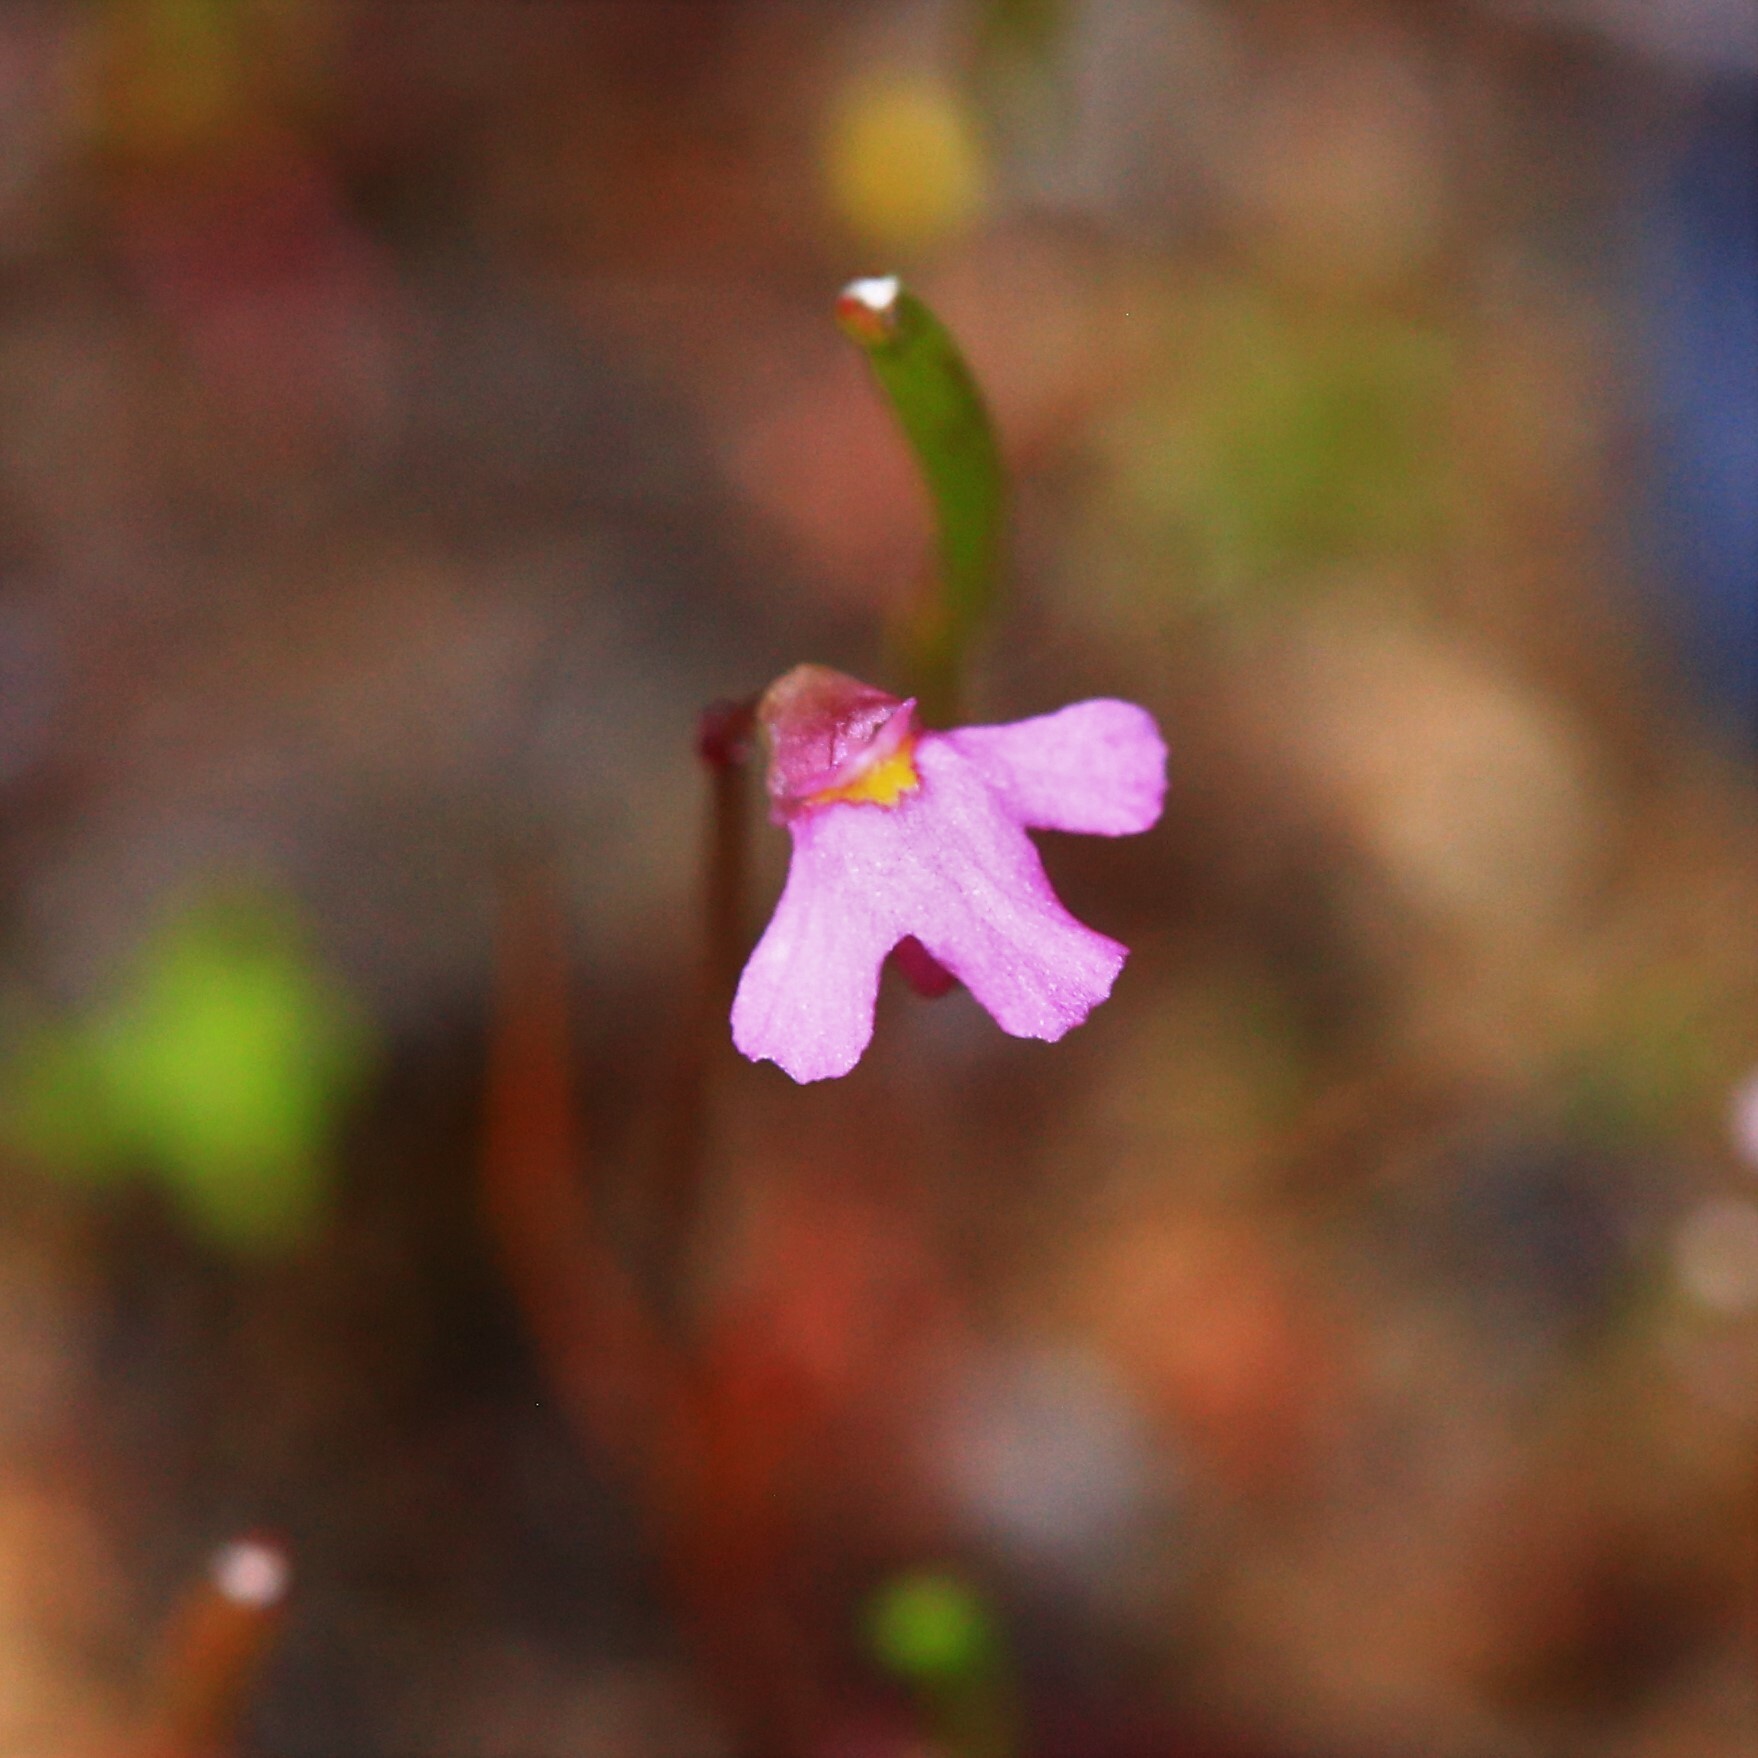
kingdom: Plantae
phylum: Tracheophyta
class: Magnoliopsida
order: Lamiales
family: Lentibulariaceae
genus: Utricularia
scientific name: Utricularia tenella
